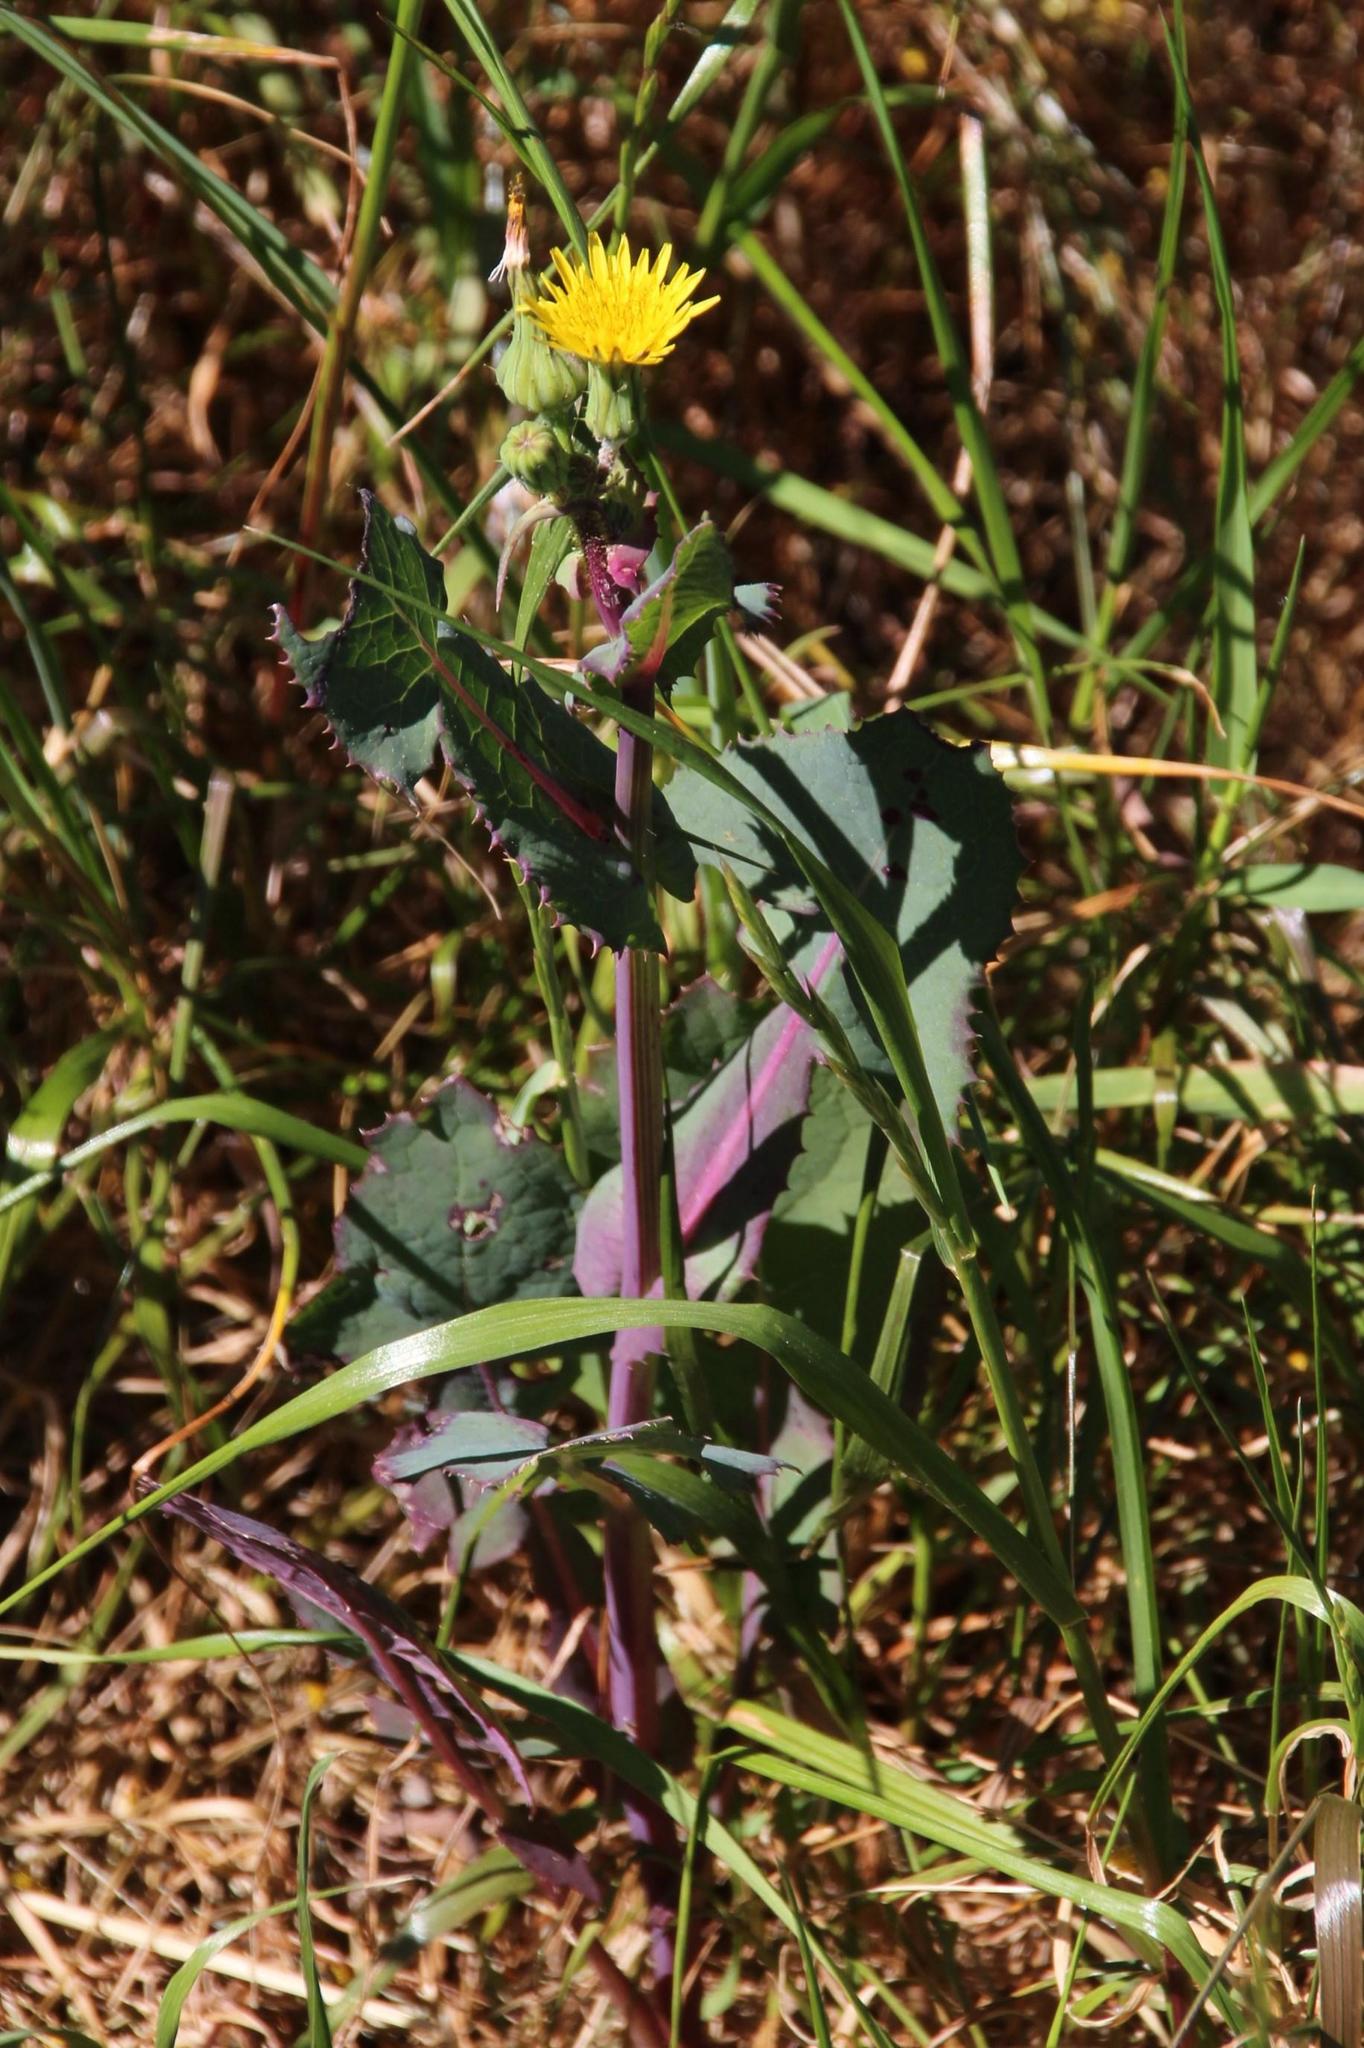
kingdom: Plantae
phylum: Tracheophyta
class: Magnoliopsida
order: Asterales
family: Asteraceae
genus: Sonchus
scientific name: Sonchus oleraceus
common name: Common sowthistle
